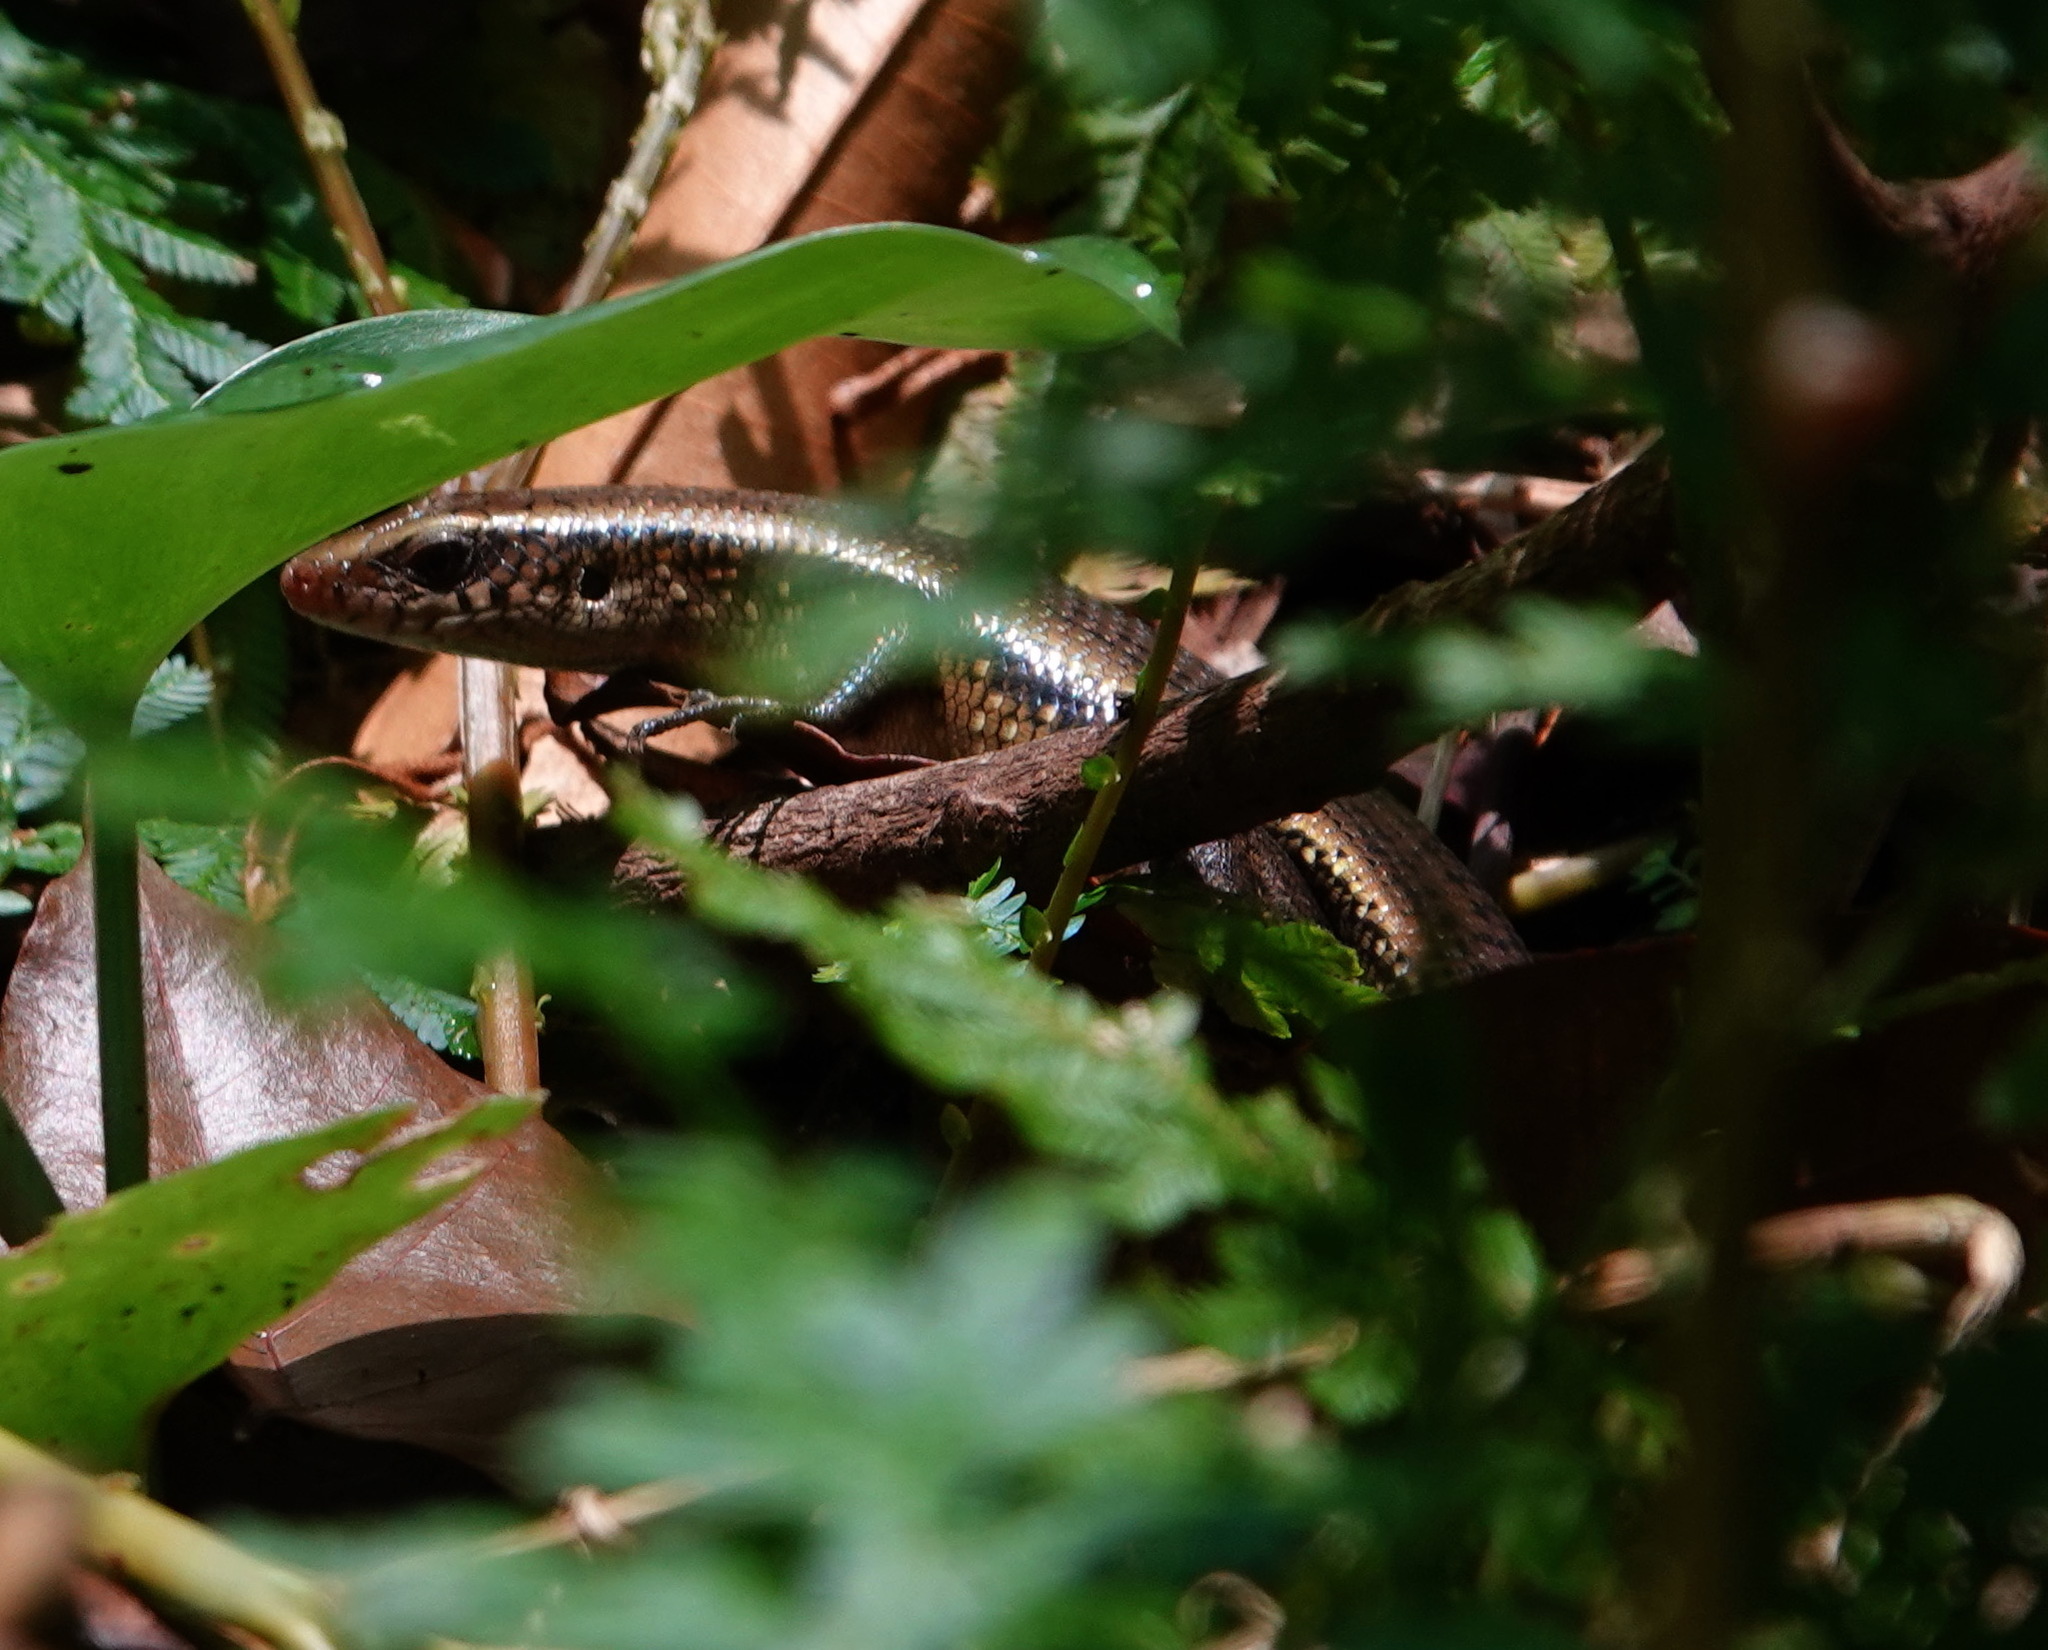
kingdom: Animalia
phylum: Chordata
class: Squamata
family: Scincidae
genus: Eutropis
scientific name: Eutropis multifasciata
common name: Common mabuya
